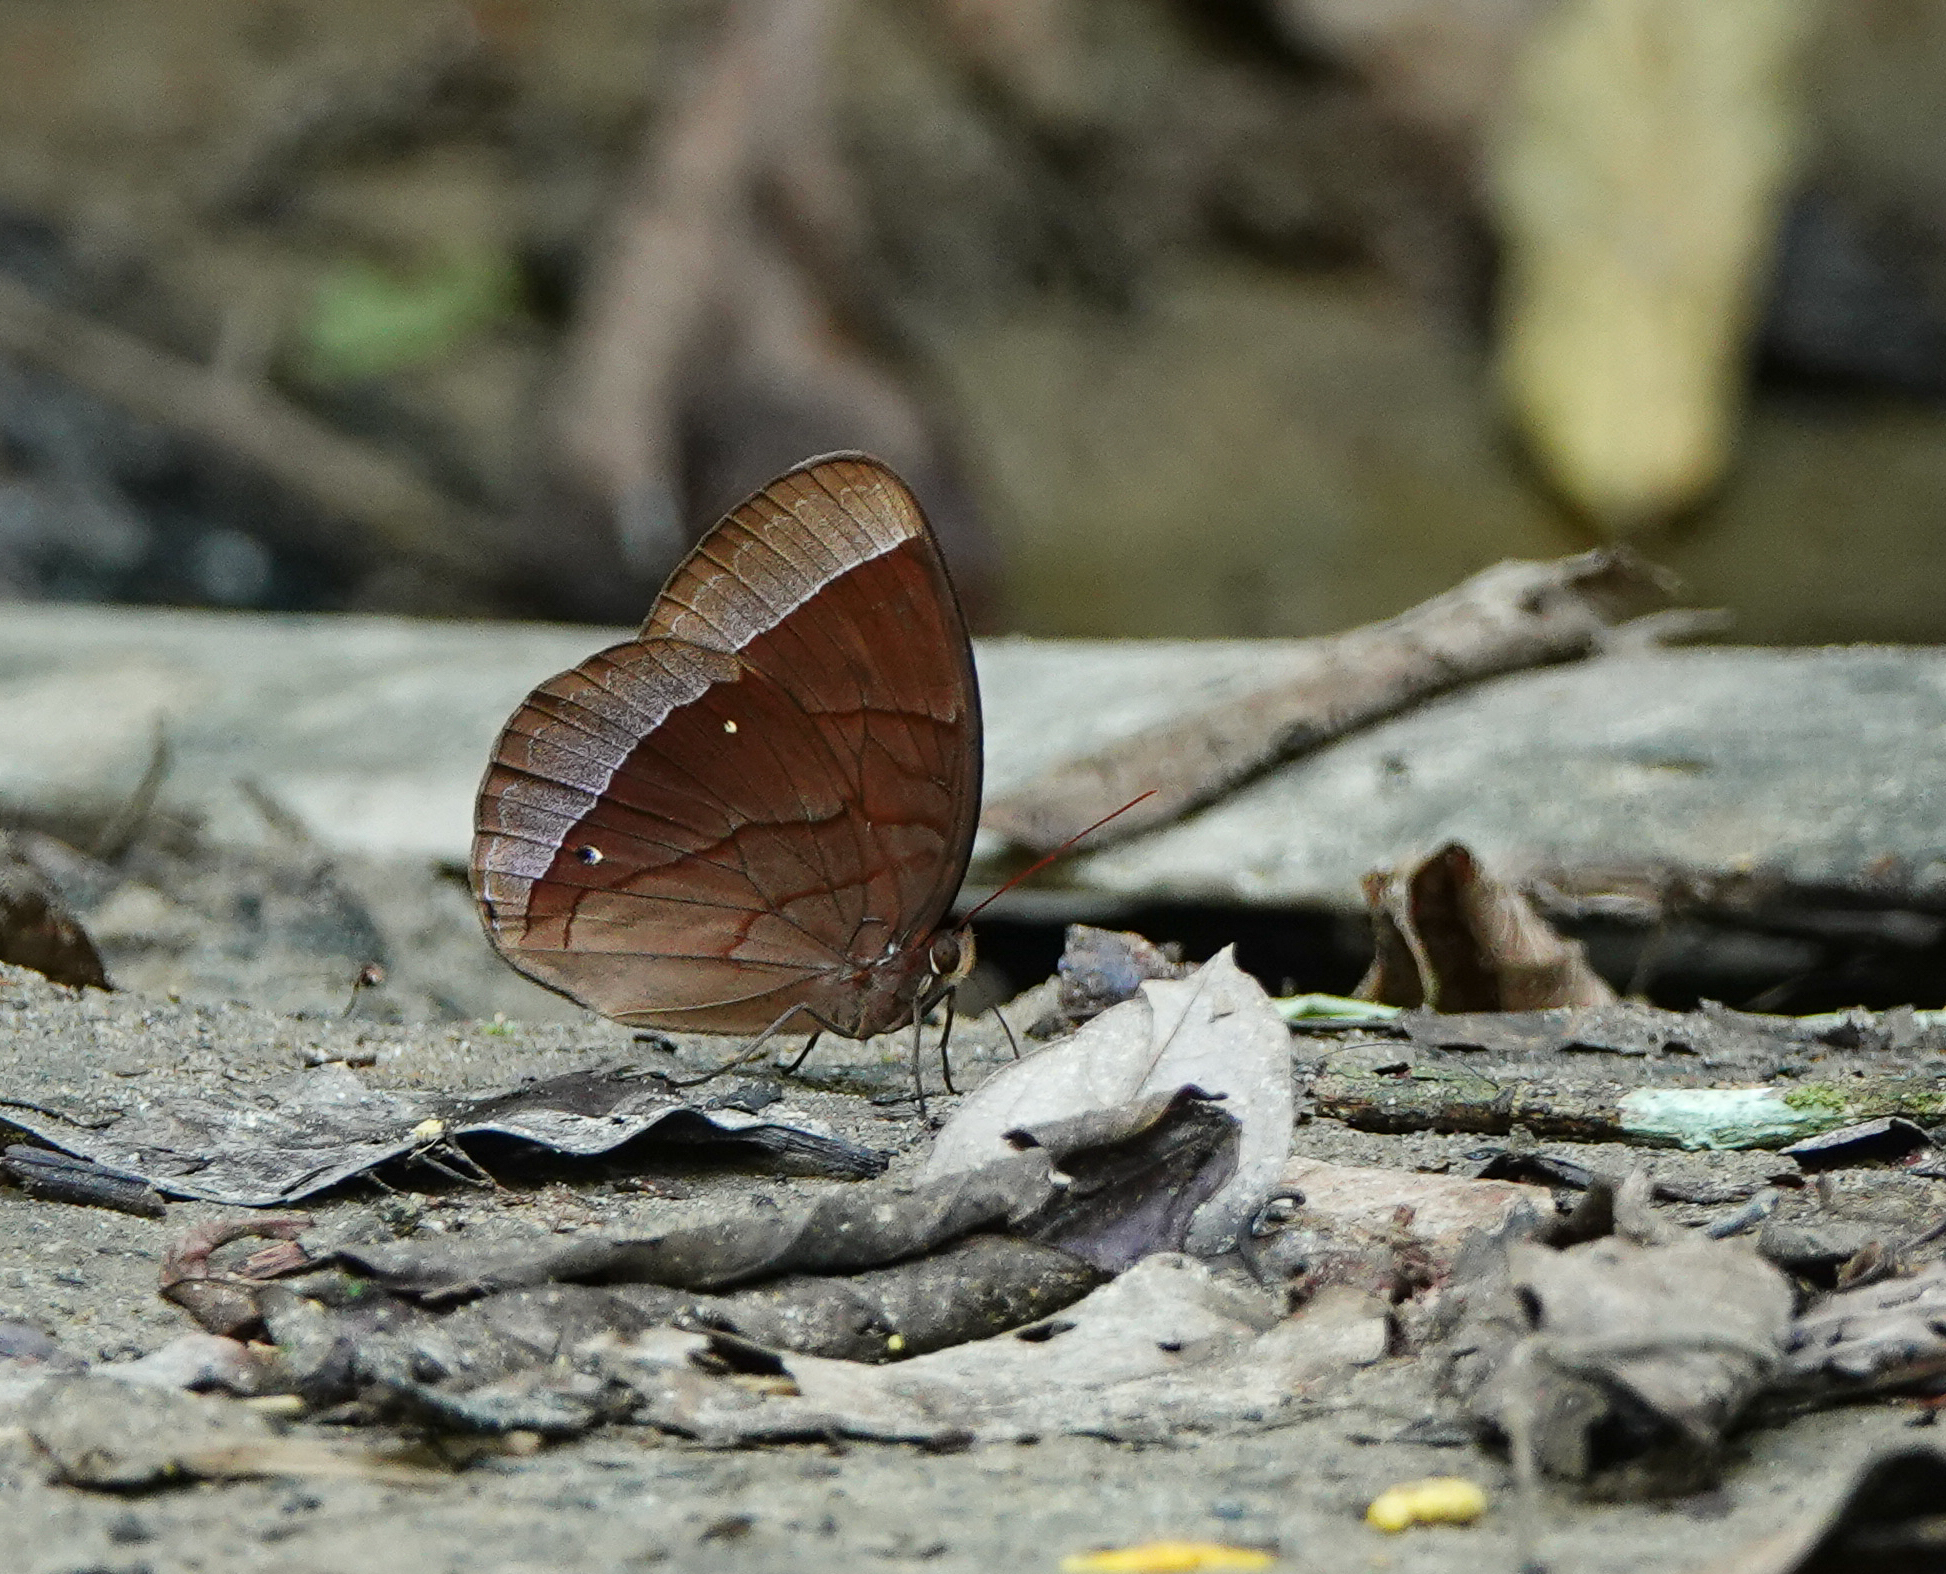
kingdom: Animalia
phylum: Arthropoda
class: Insecta
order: Lepidoptera
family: Nymphalidae
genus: Thaumantis
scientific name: Thaumantis diores
